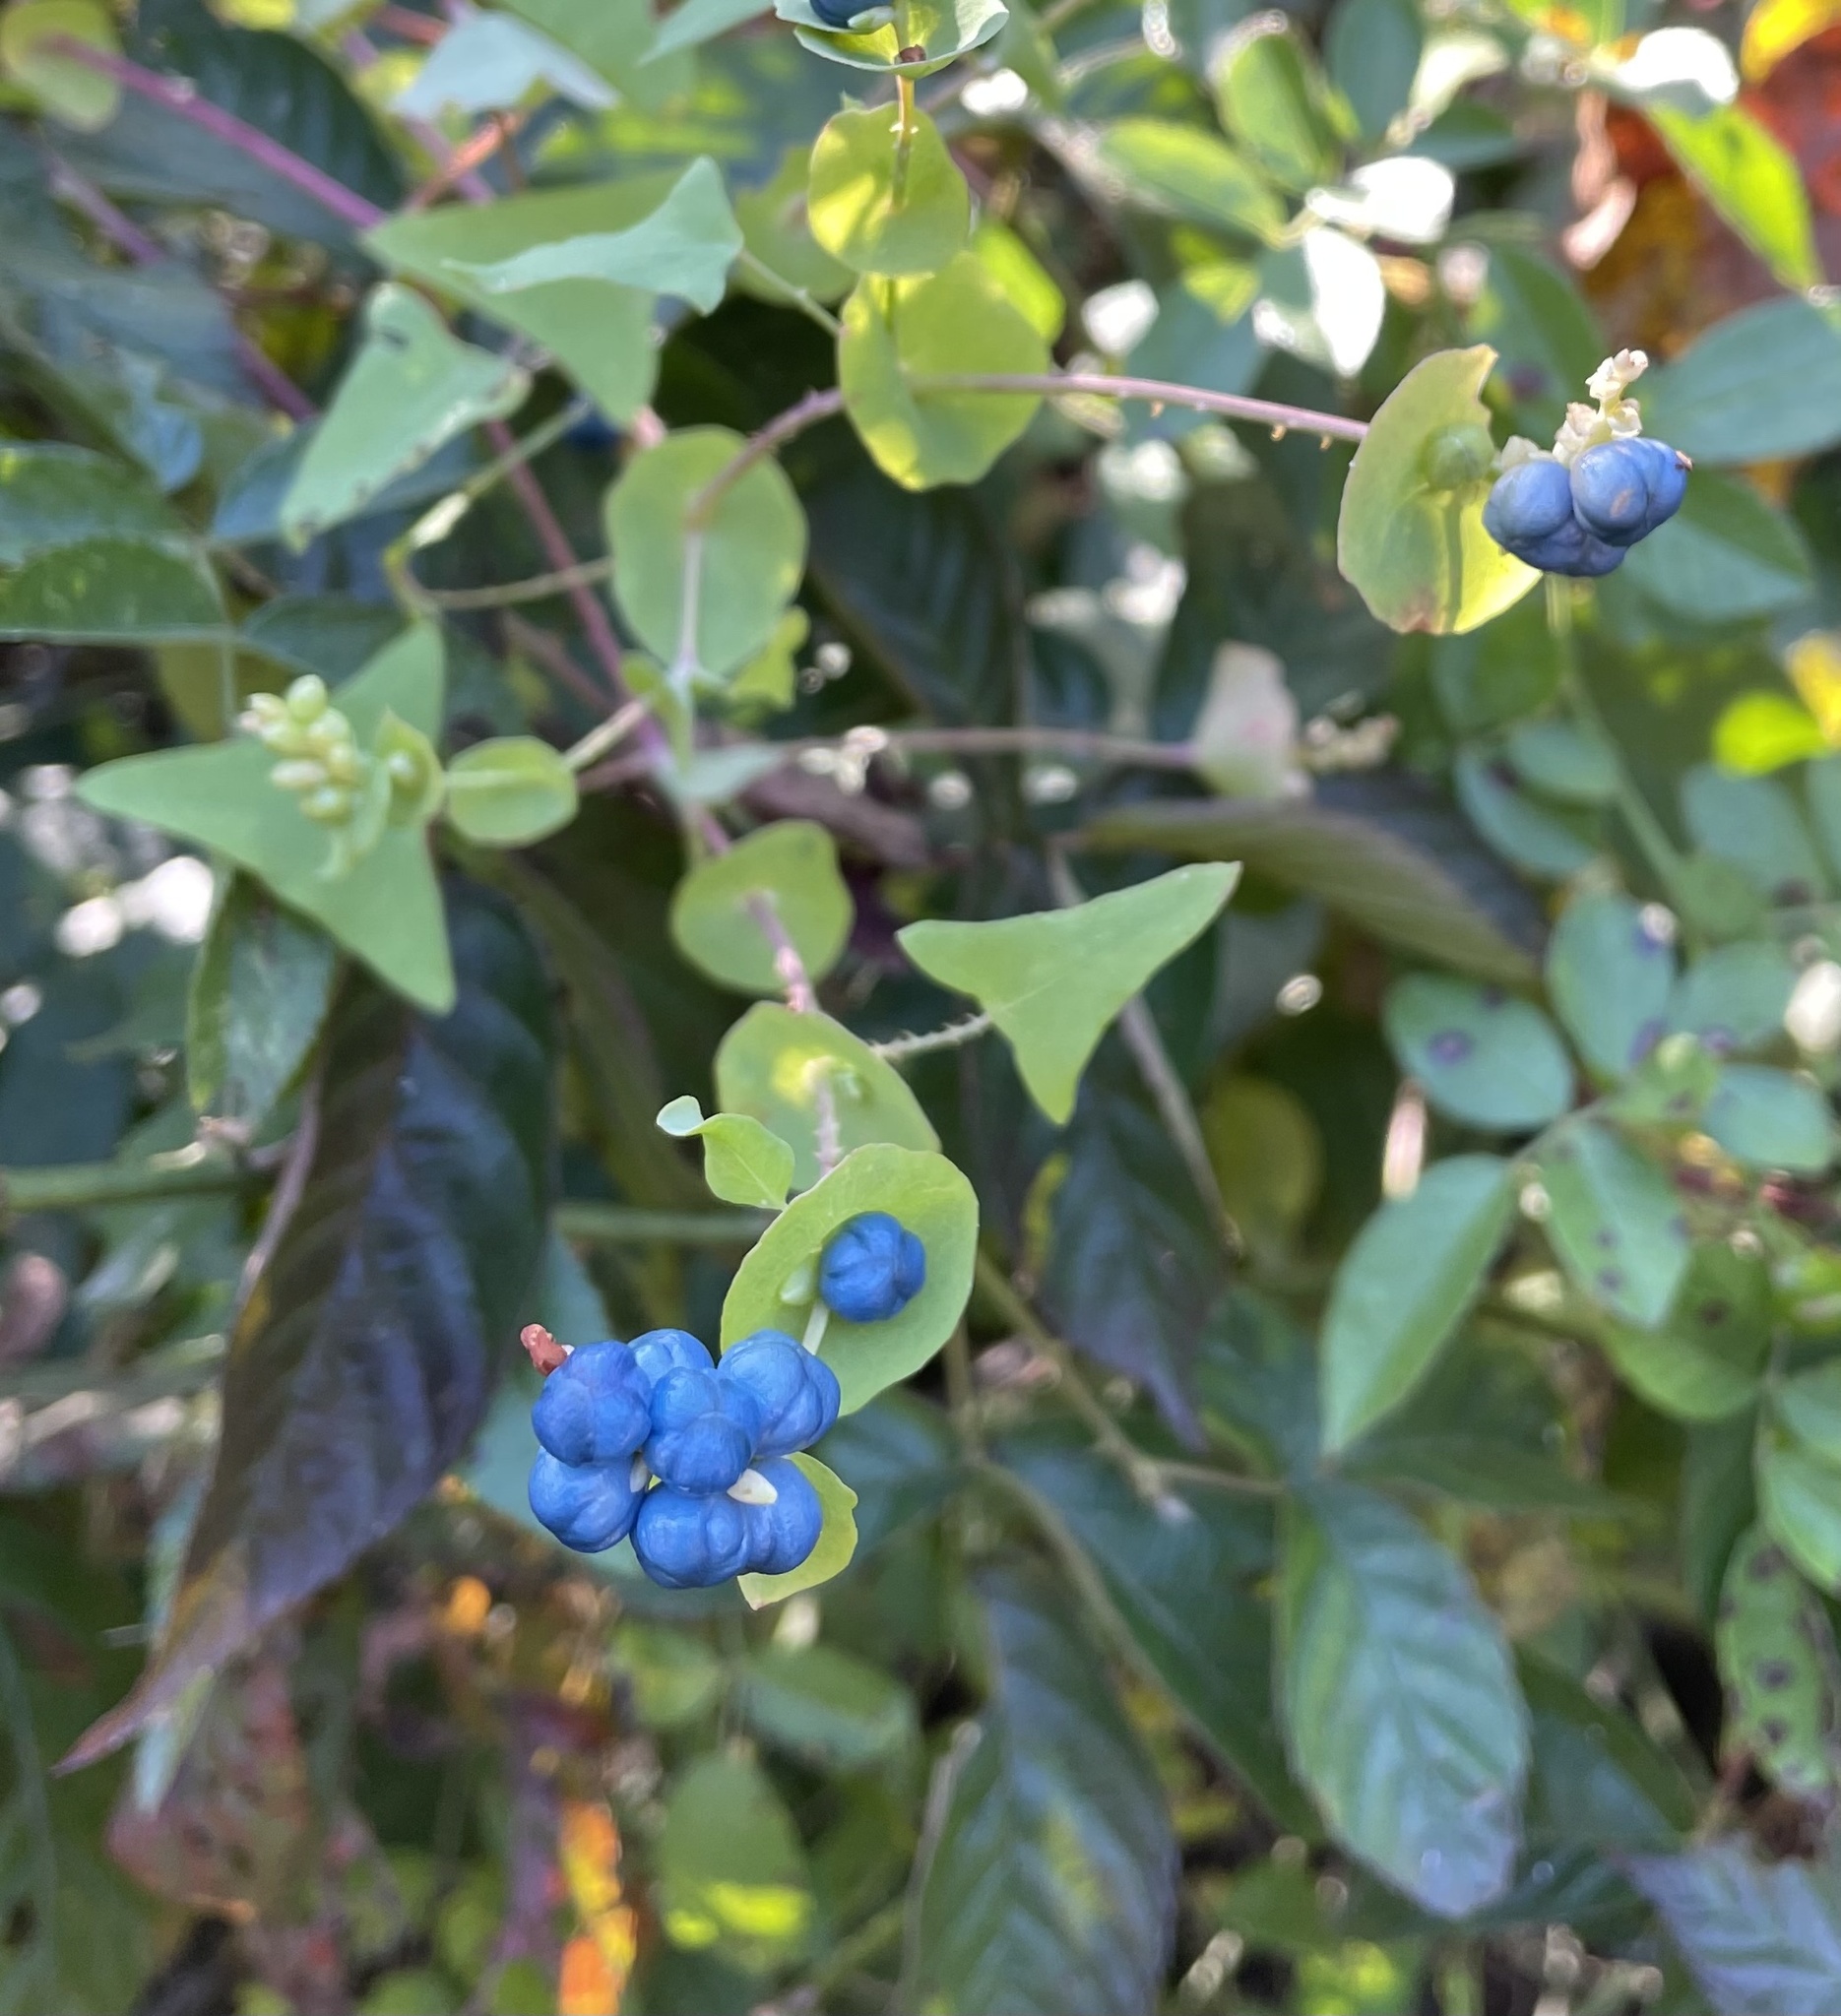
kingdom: Plantae
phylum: Tracheophyta
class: Magnoliopsida
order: Caryophyllales
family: Polygonaceae
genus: Persicaria
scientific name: Persicaria perfoliata
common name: Asiatic tearthumb
